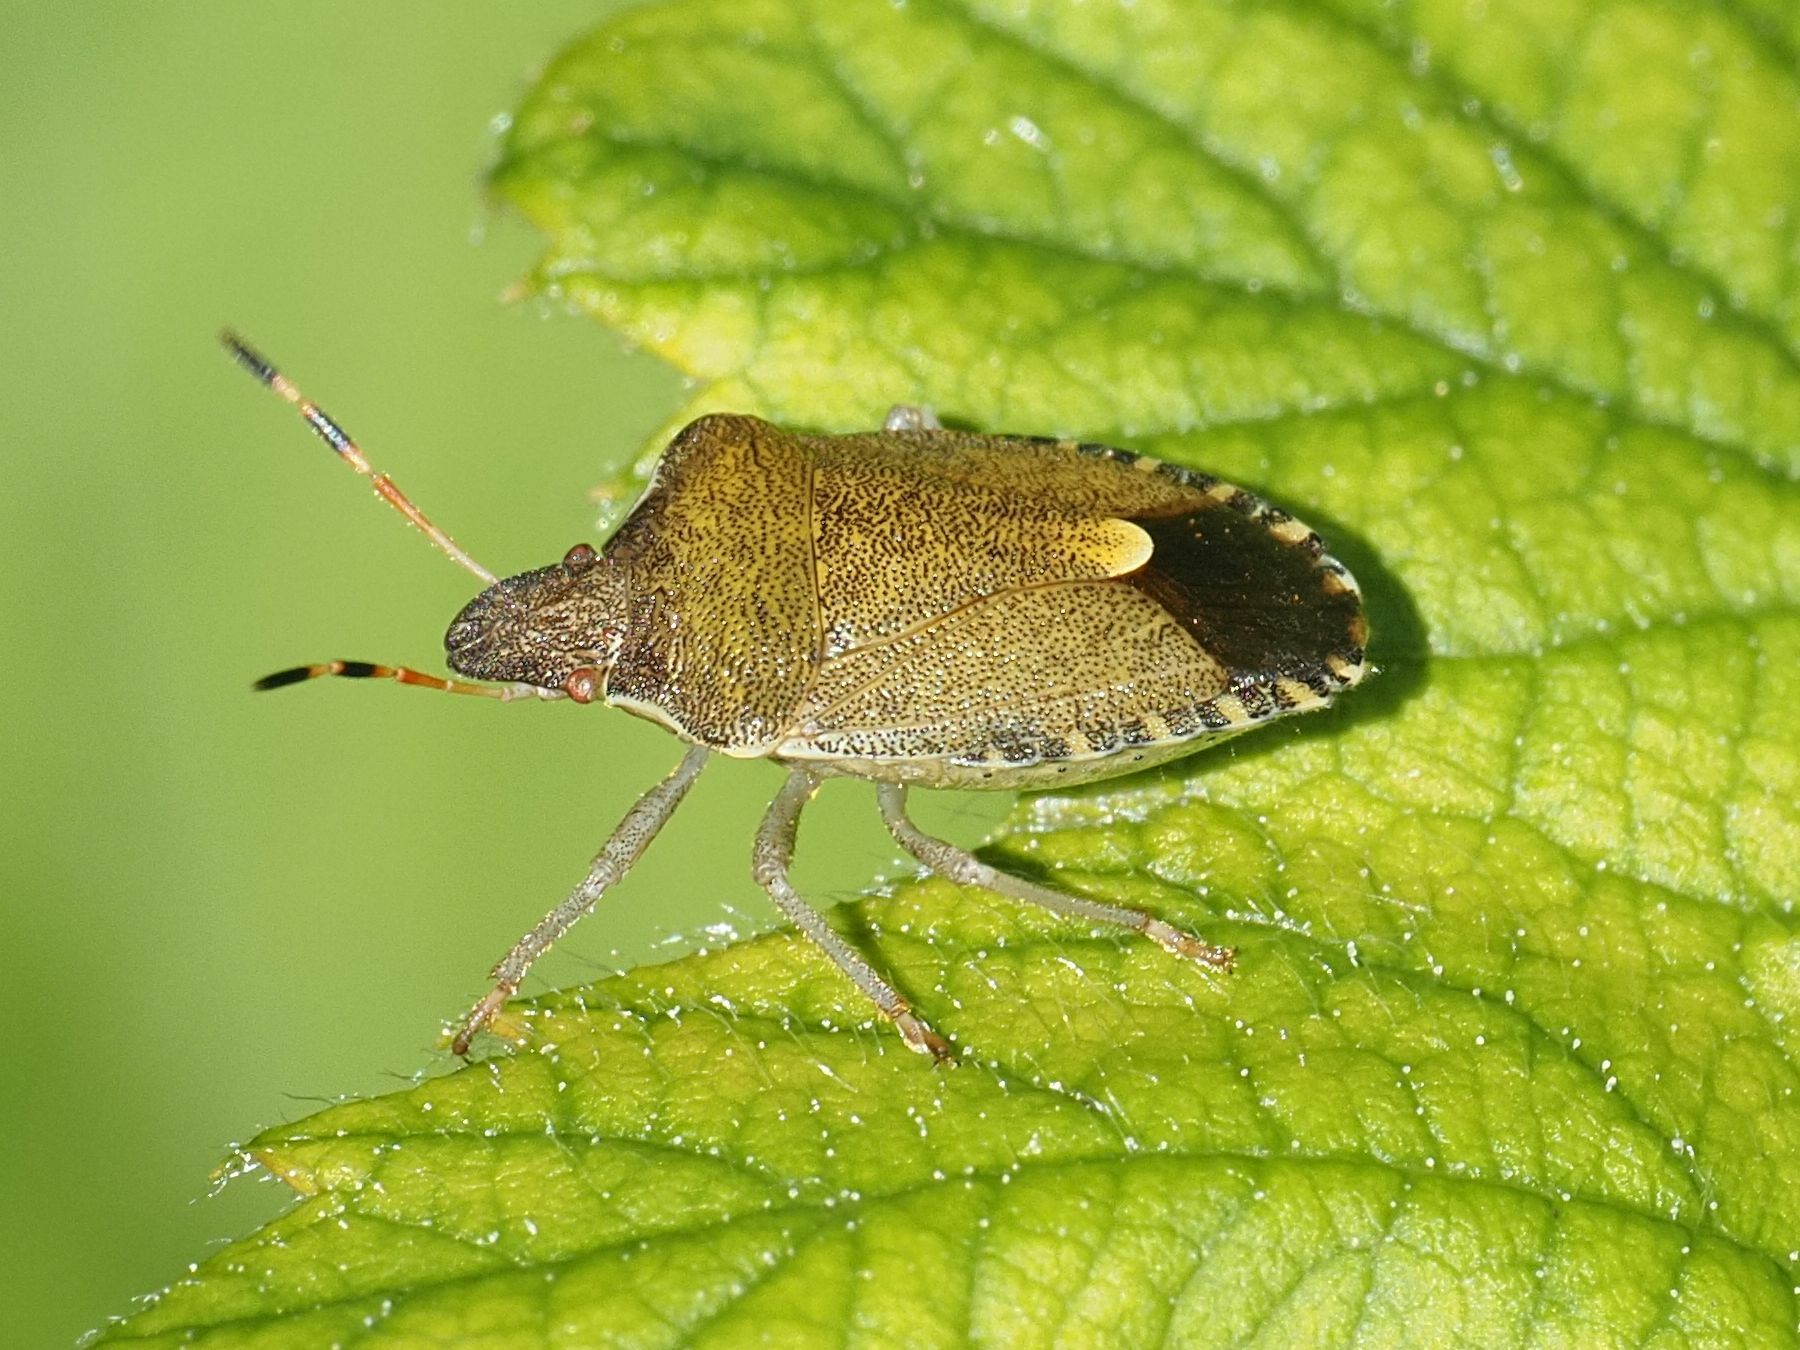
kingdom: Animalia
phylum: Arthropoda
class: Insecta
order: Hemiptera
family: Pentatomidae
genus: Holcostethus
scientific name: Holcostethus strictus
